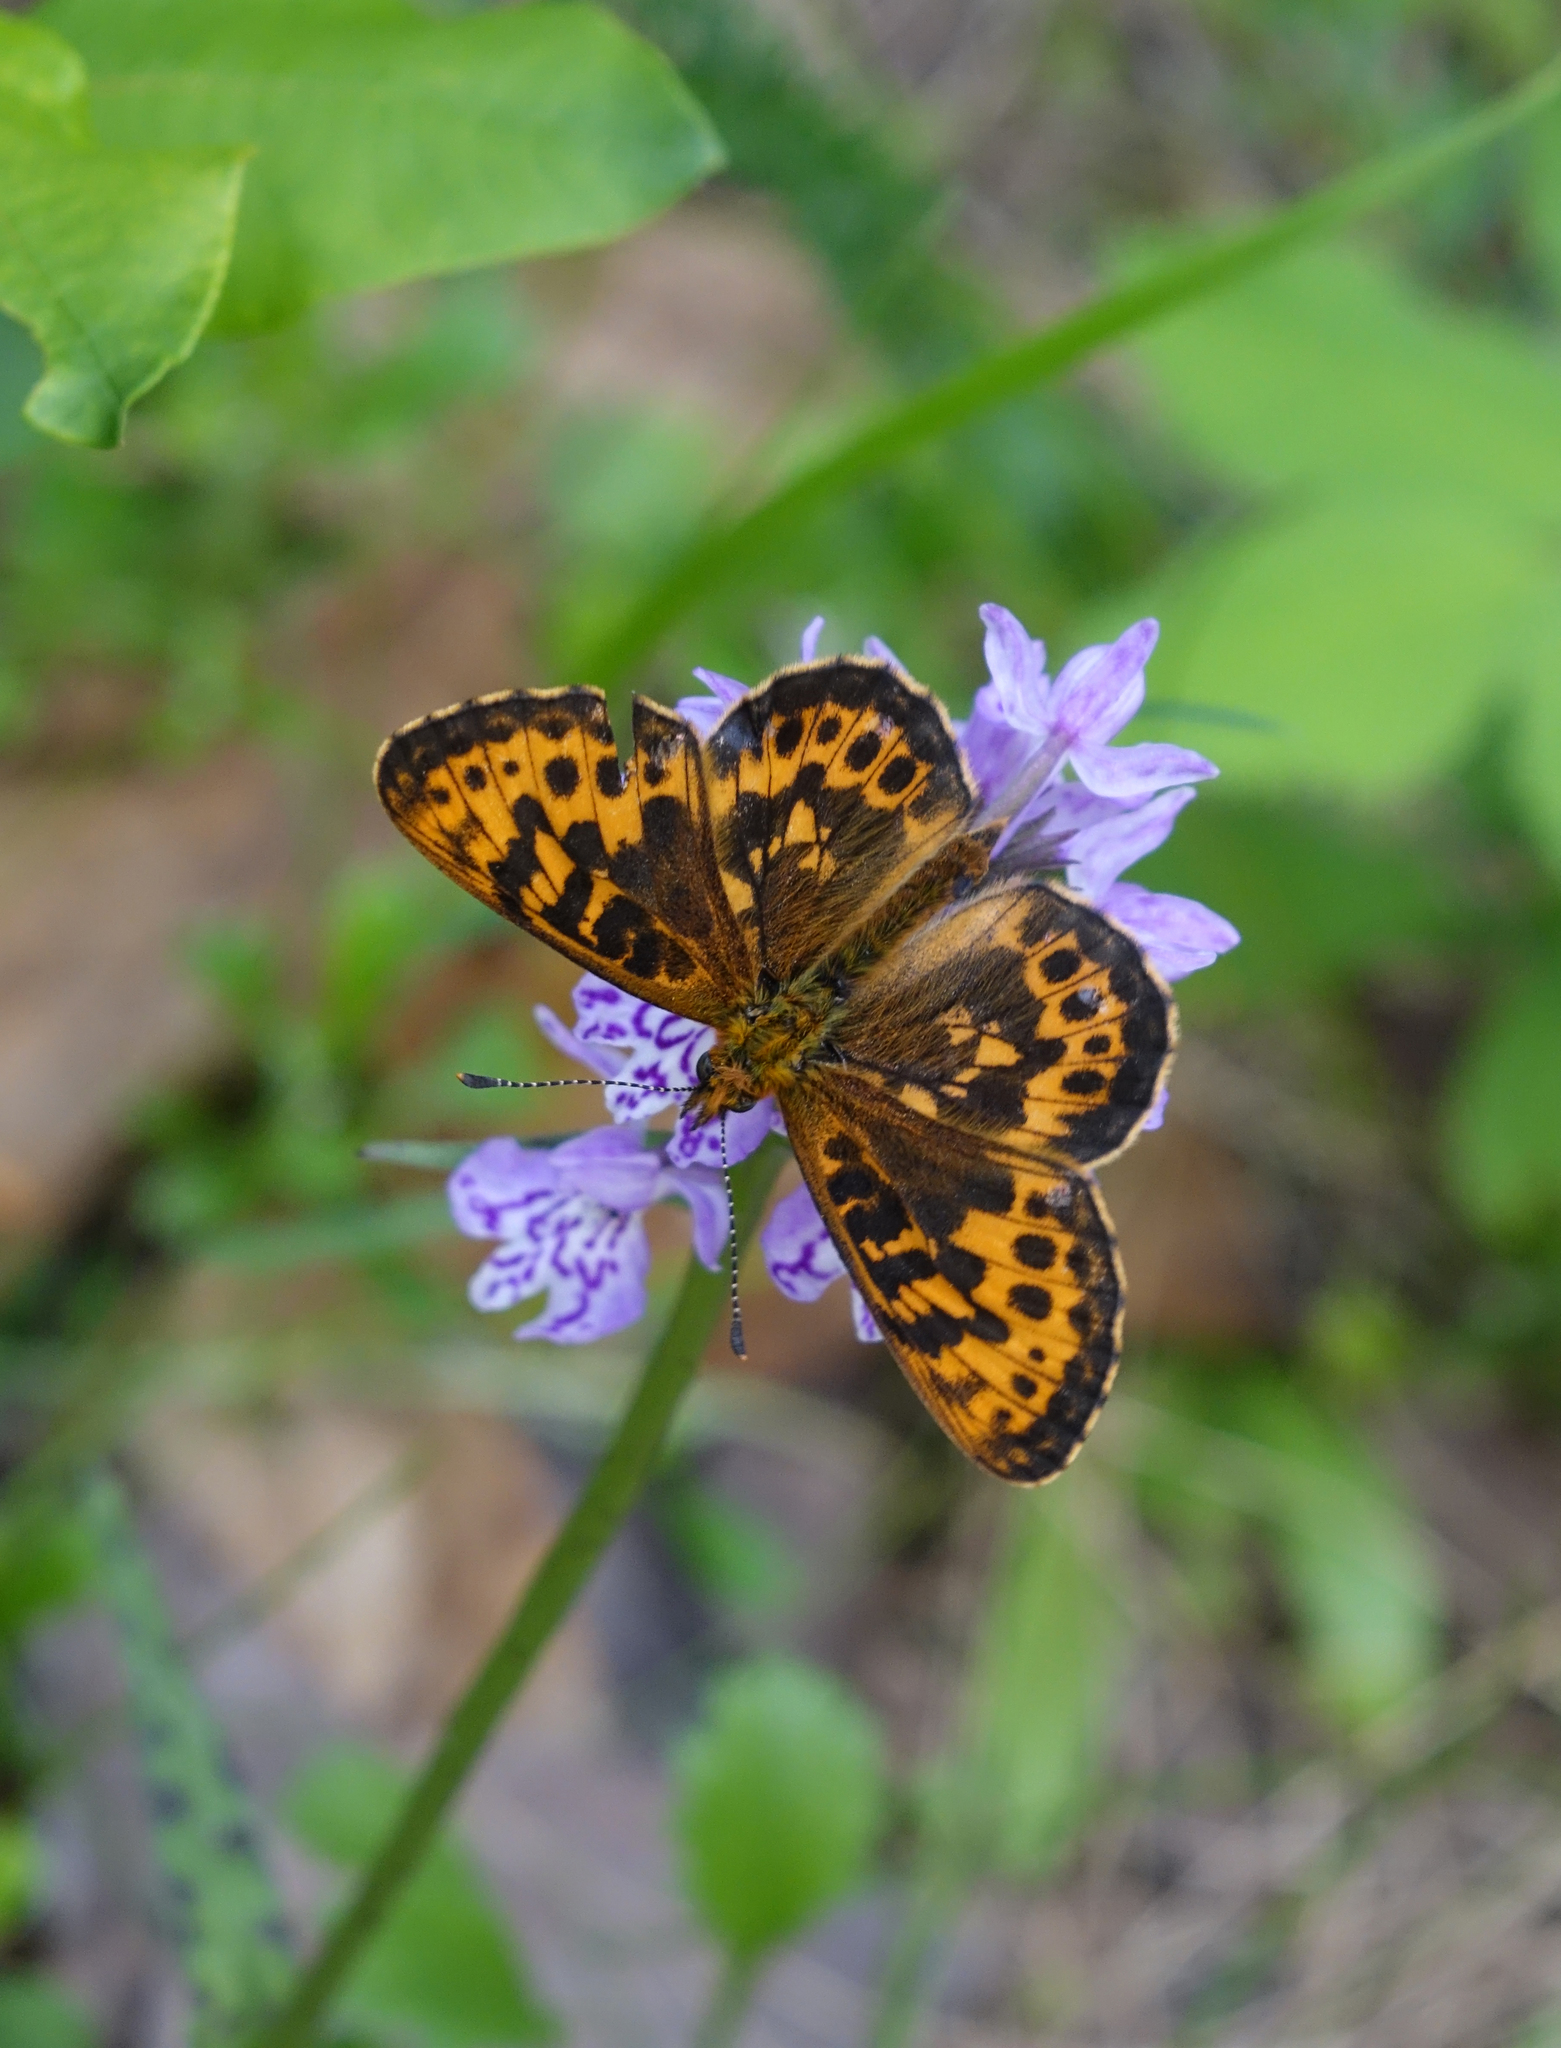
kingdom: Plantae
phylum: Tracheophyta
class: Liliopsida
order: Asparagales
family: Orchidaceae
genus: Dactylorhiza
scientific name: Dactylorhiza maculata
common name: Heath spotted-orchid
